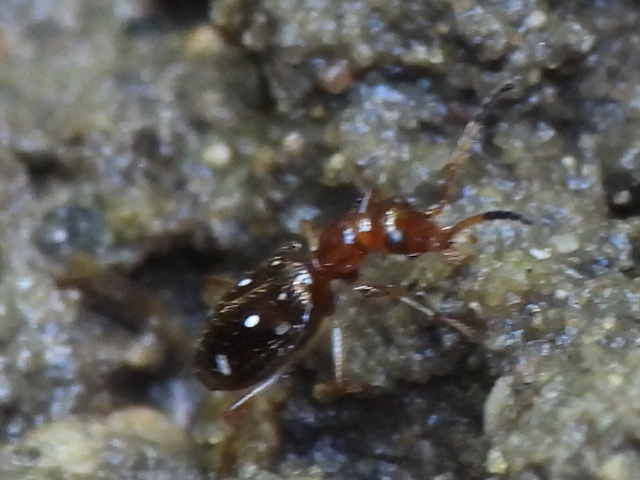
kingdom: Animalia
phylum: Arthropoda
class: Insecta
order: Coleoptera
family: Carabidae
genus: Ega
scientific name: Ega sallei
